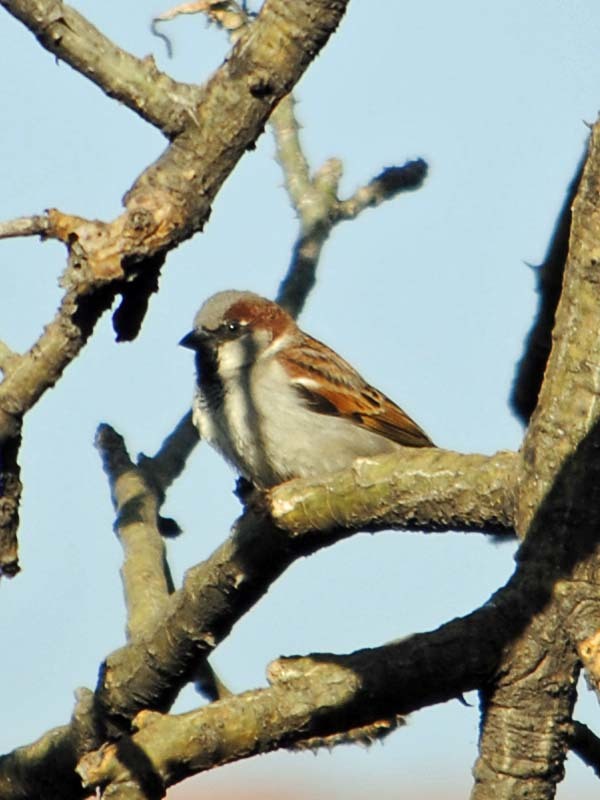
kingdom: Animalia
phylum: Chordata
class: Aves
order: Passeriformes
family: Passeridae
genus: Passer
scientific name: Passer domesticus
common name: House sparrow
